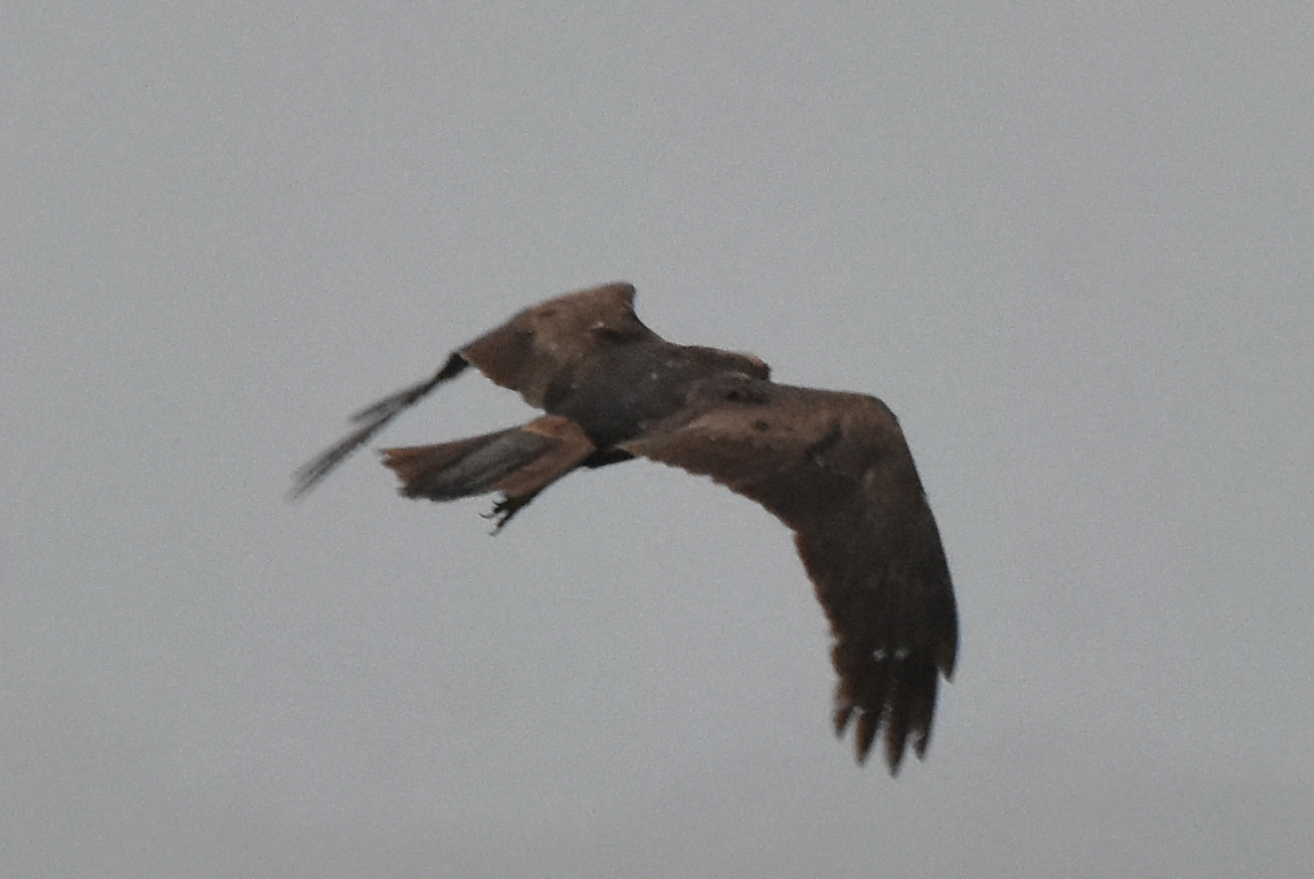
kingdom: Animalia
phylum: Chordata
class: Aves
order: Accipitriformes
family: Accipitridae
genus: Circus
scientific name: Circus aeruginosus
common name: Western marsh harrier
